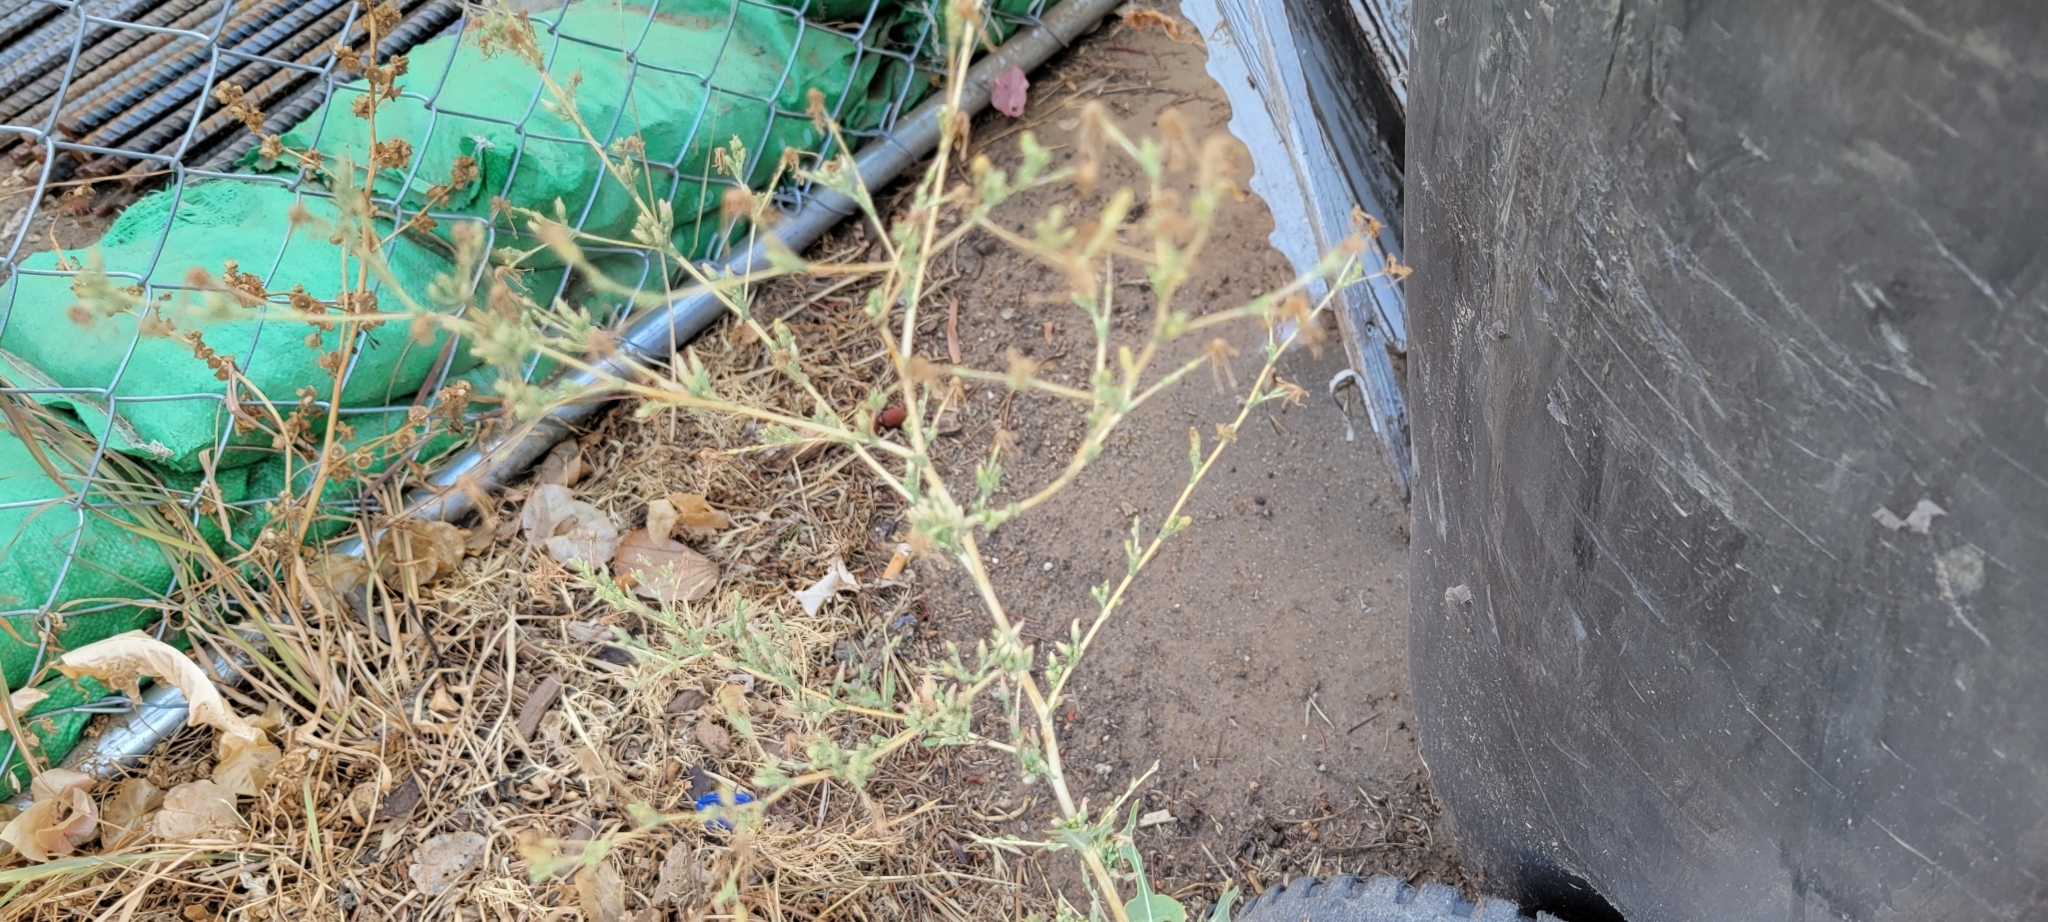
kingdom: Plantae
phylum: Tracheophyta
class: Magnoliopsida
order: Asterales
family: Asteraceae
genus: Lactuca
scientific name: Lactuca serriola
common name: Prickly lettuce
